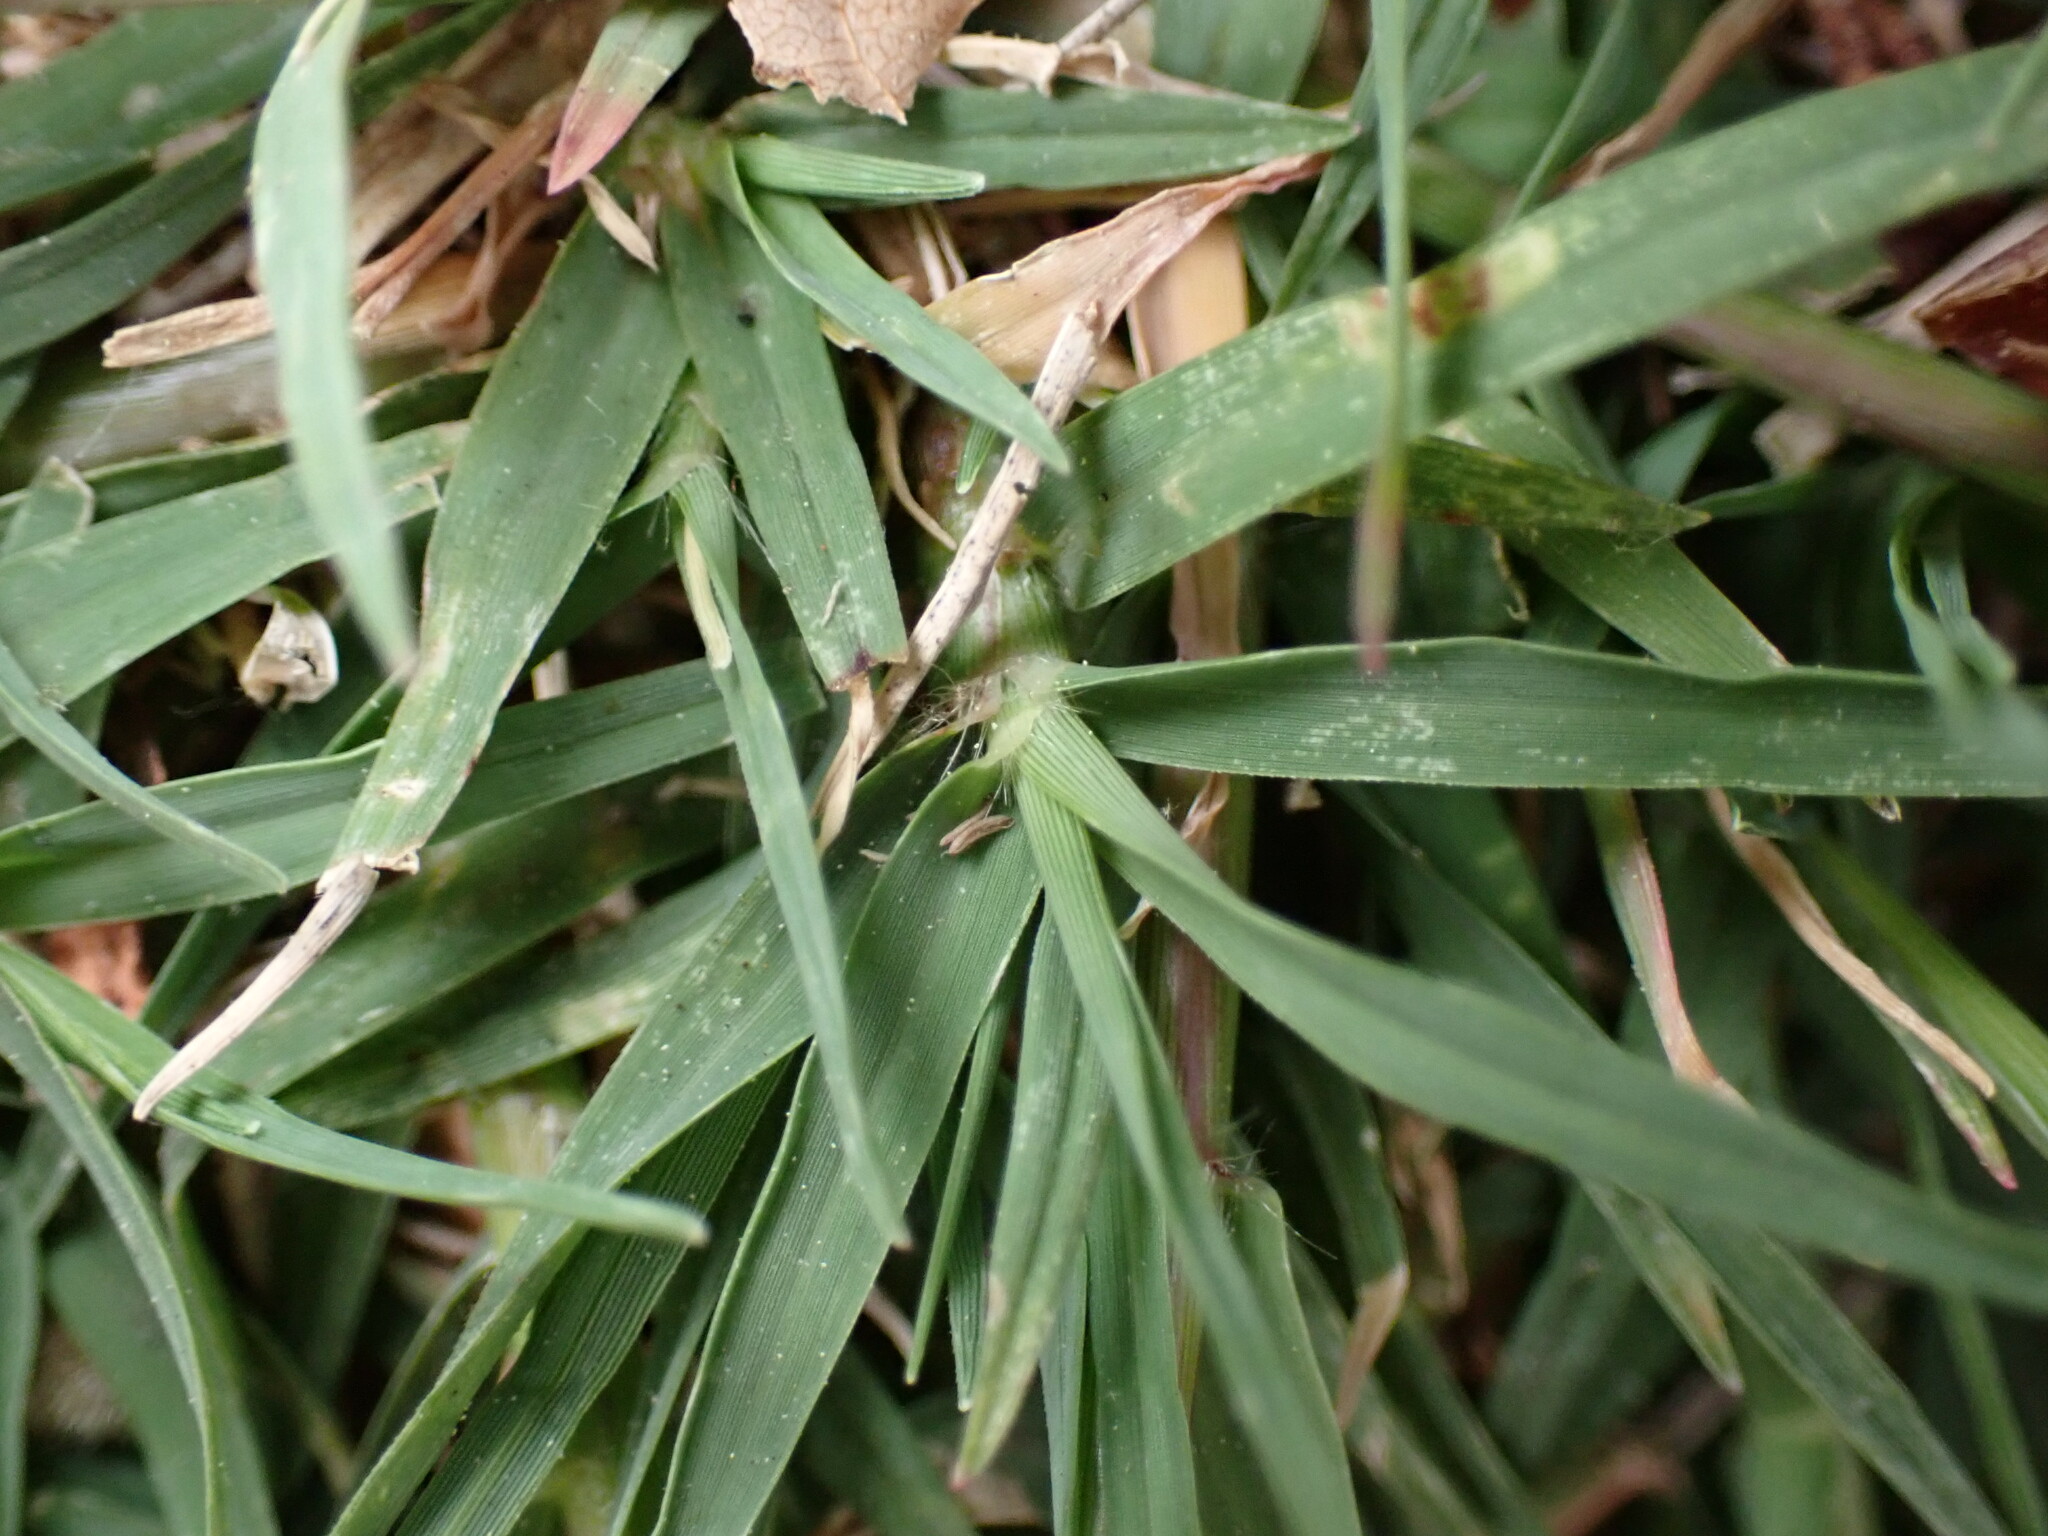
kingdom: Plantae
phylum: Tracheophyta
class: Liliopsida
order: Poales
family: Poaceae
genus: Cynodon
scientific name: Cynodon dactylon
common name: Bermuda grass
